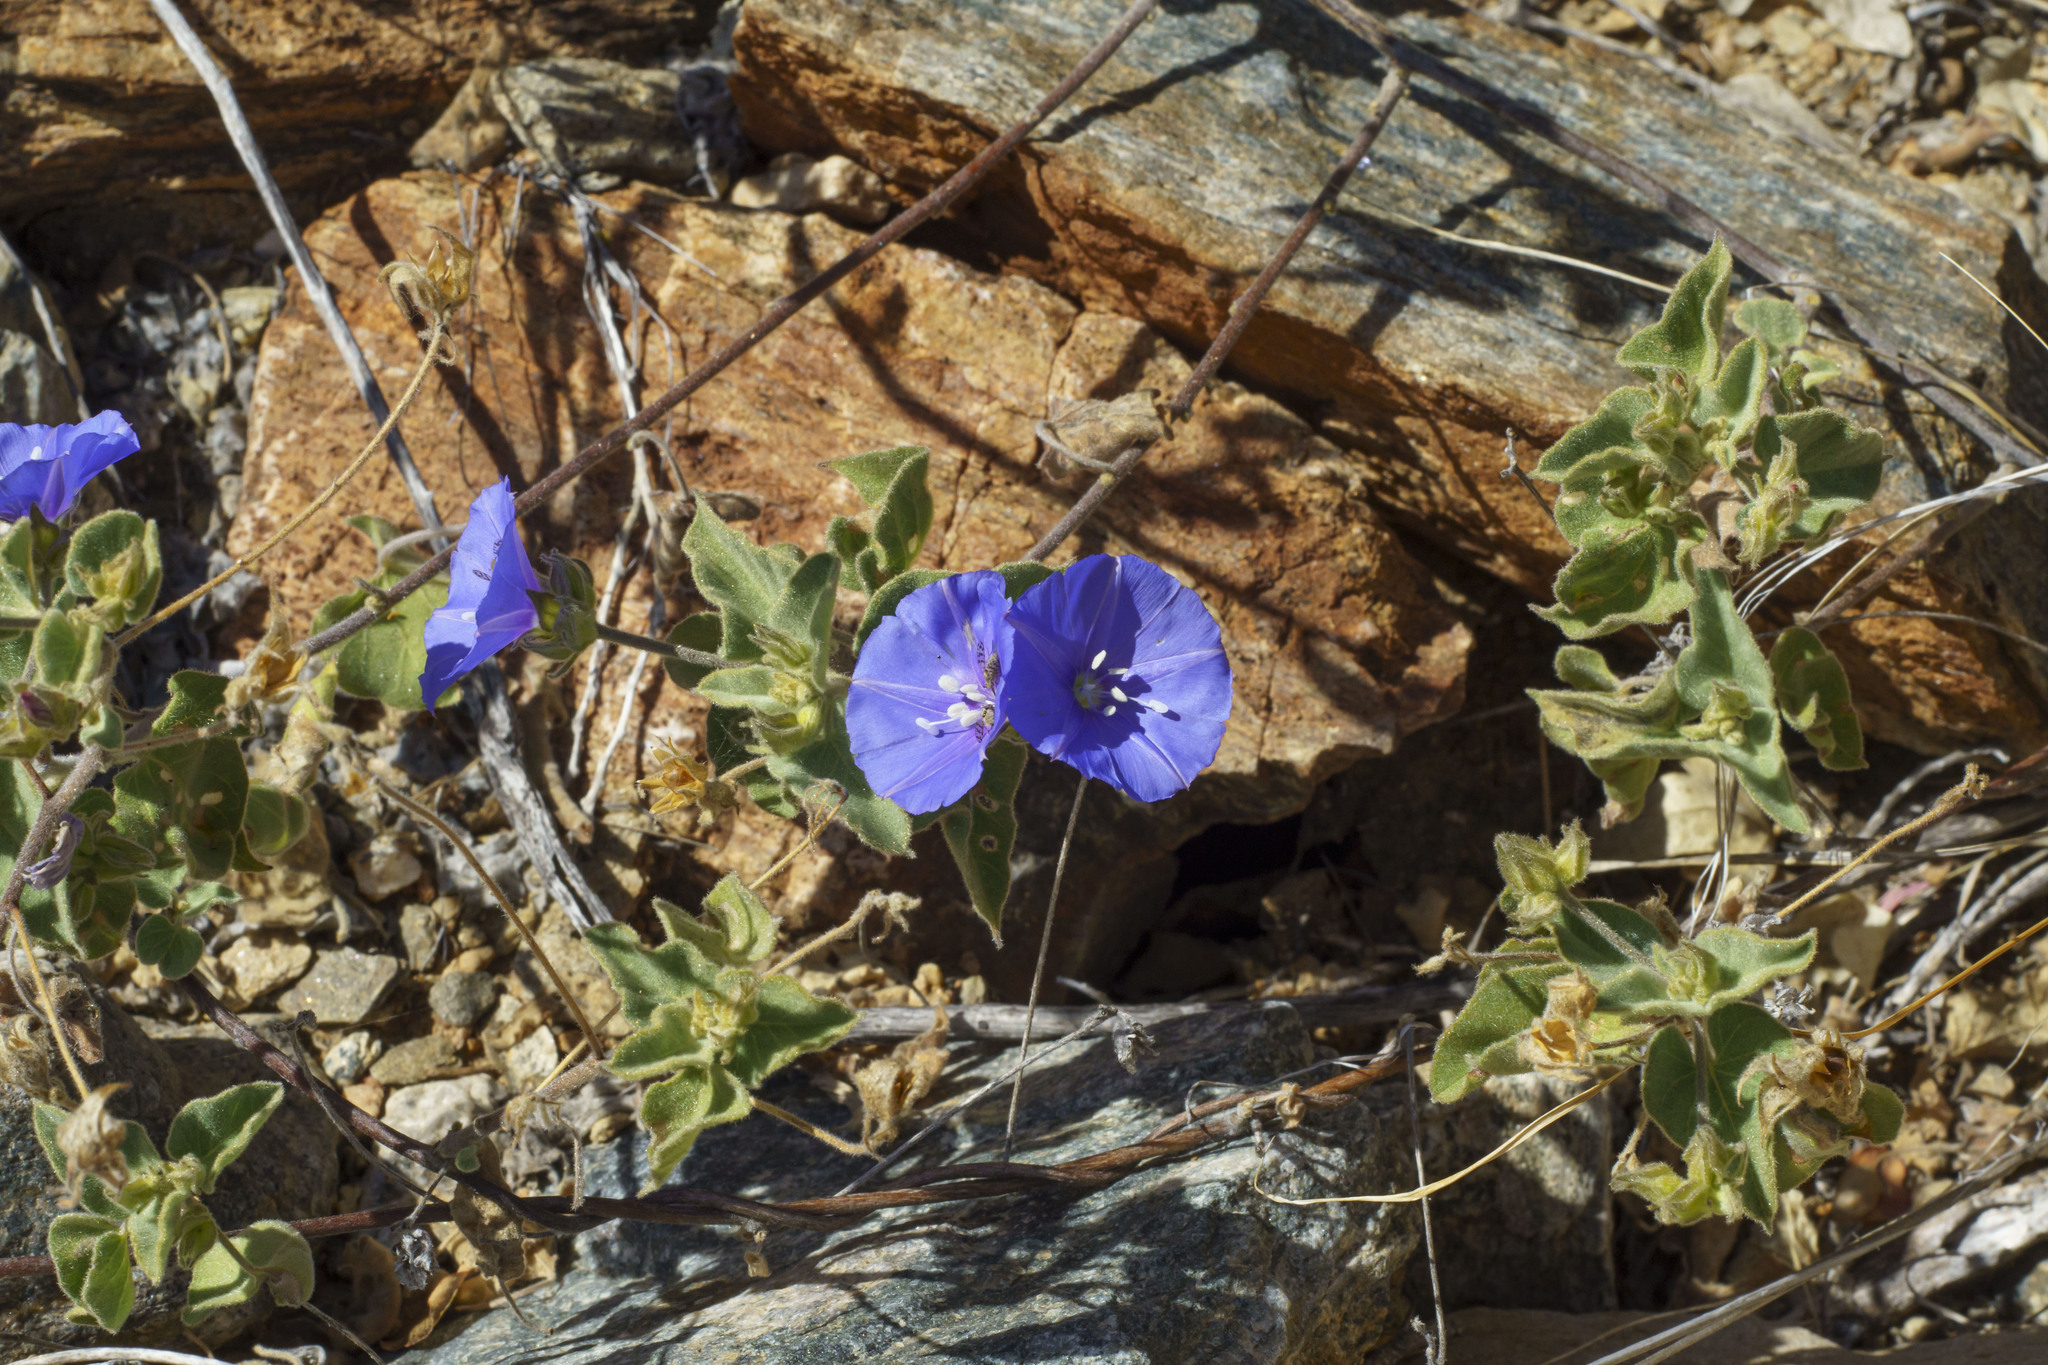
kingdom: Plantae
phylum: Tracheophyta
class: Magnoliopsida
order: Solanales
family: Convolvulaceae
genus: Jacquemontia
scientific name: Jacquemontia abutiloides
